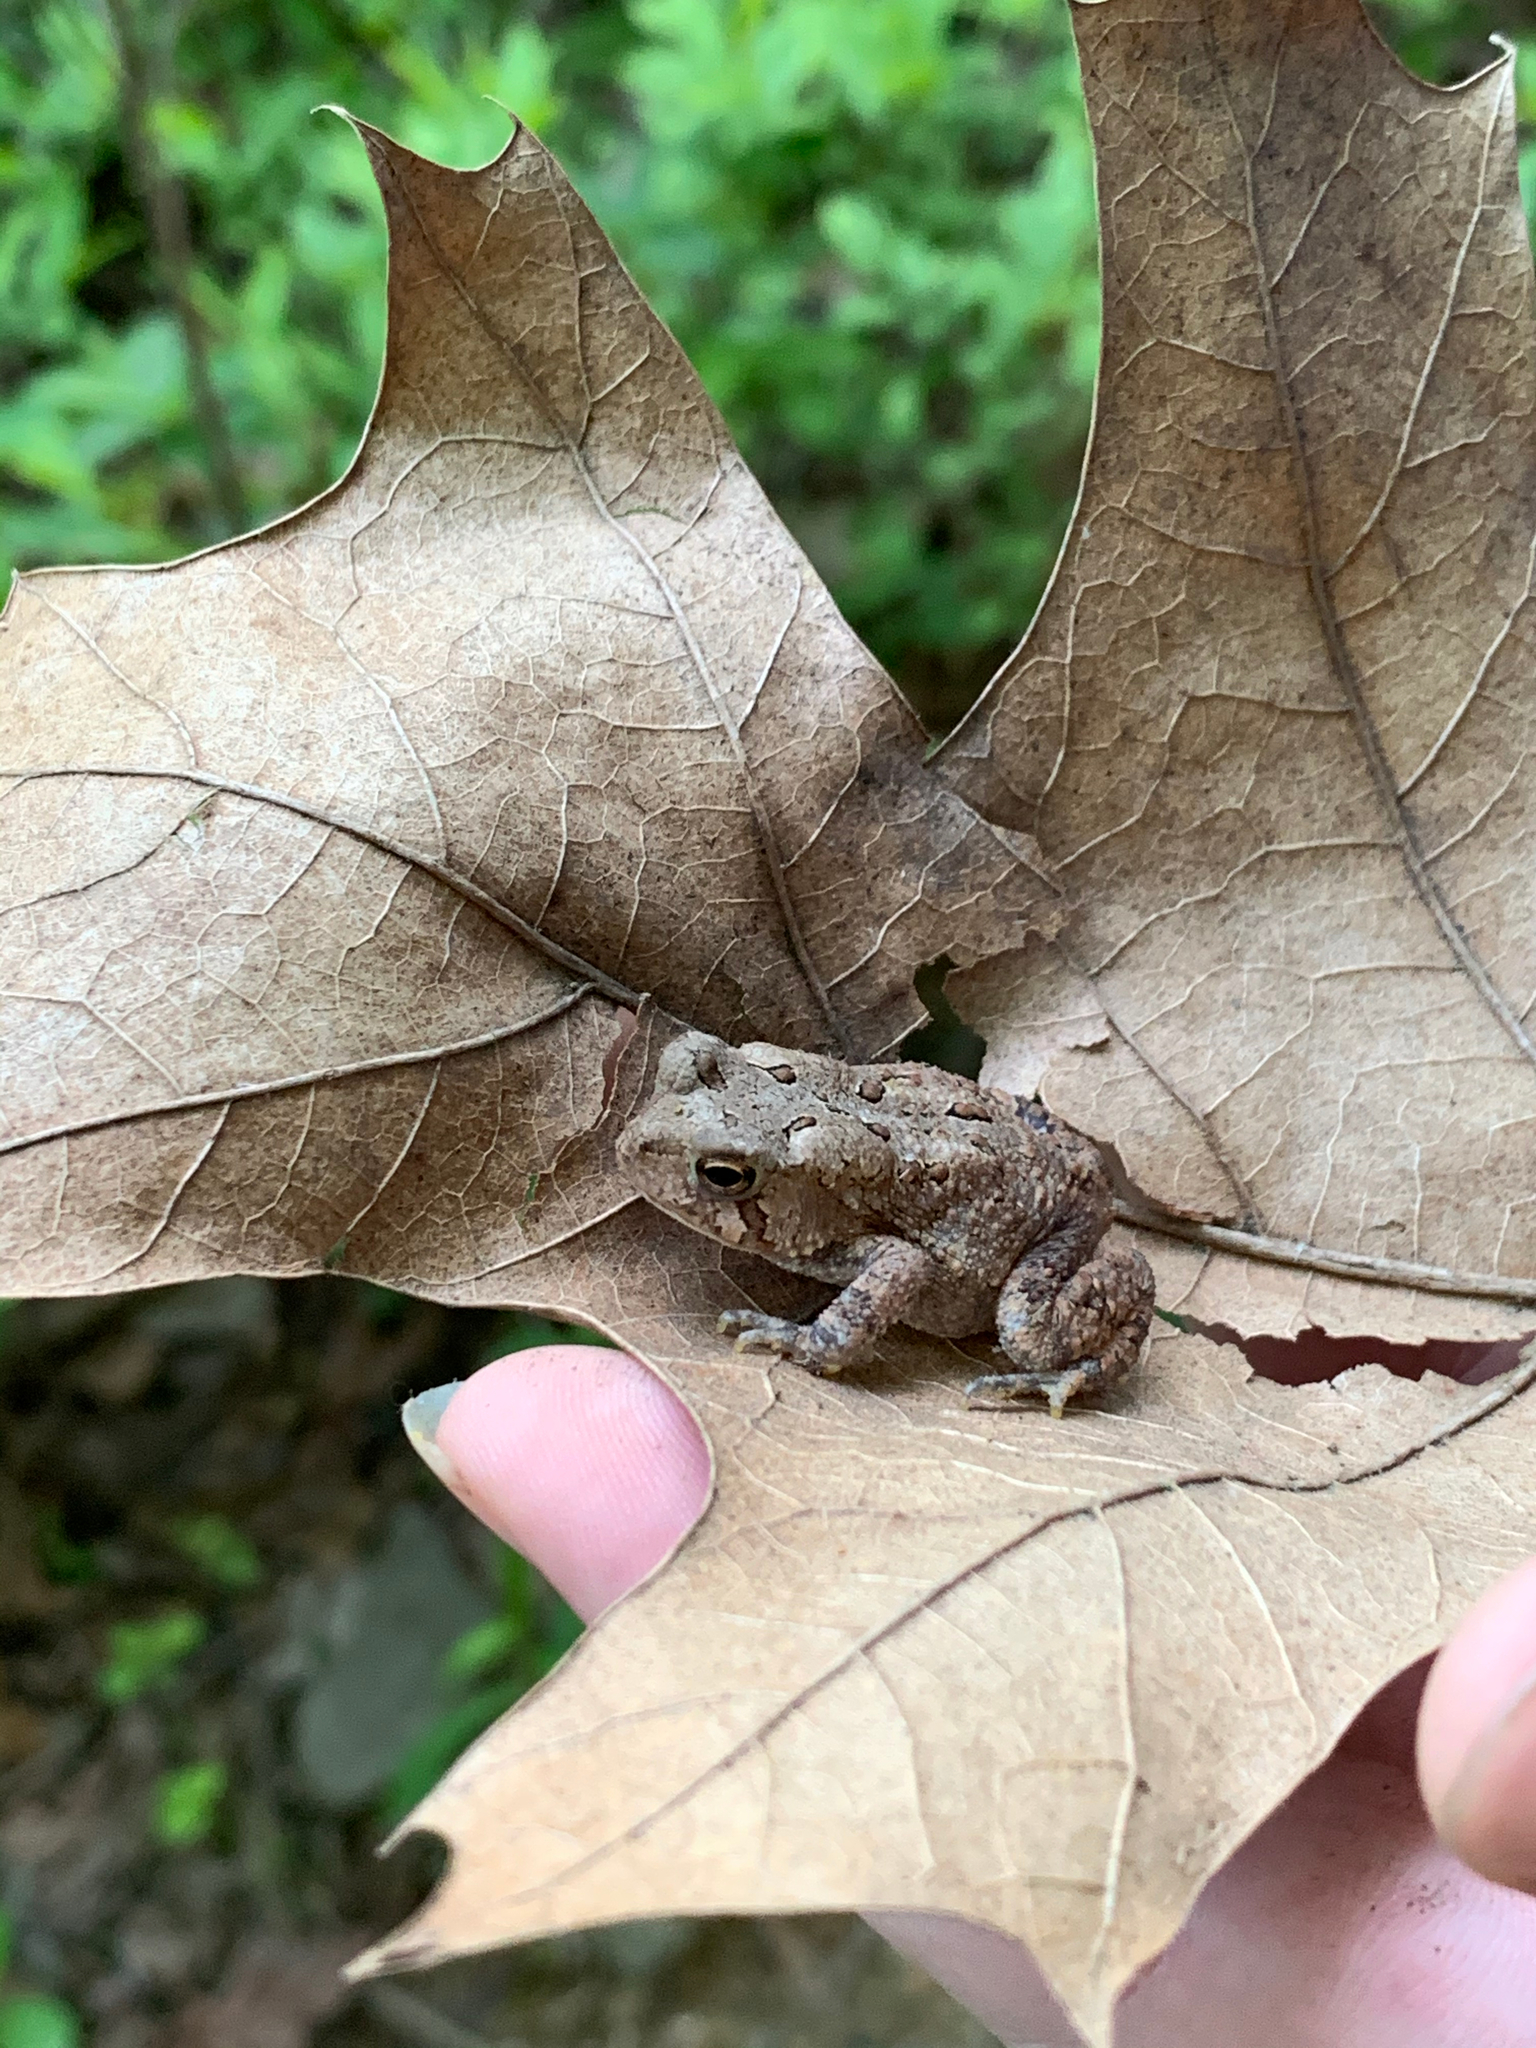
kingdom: Animalia
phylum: Chordata
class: Amphibia
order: Anura
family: Bufonidae
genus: Anaxyrus
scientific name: Anaxyrus americanus
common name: American toad
